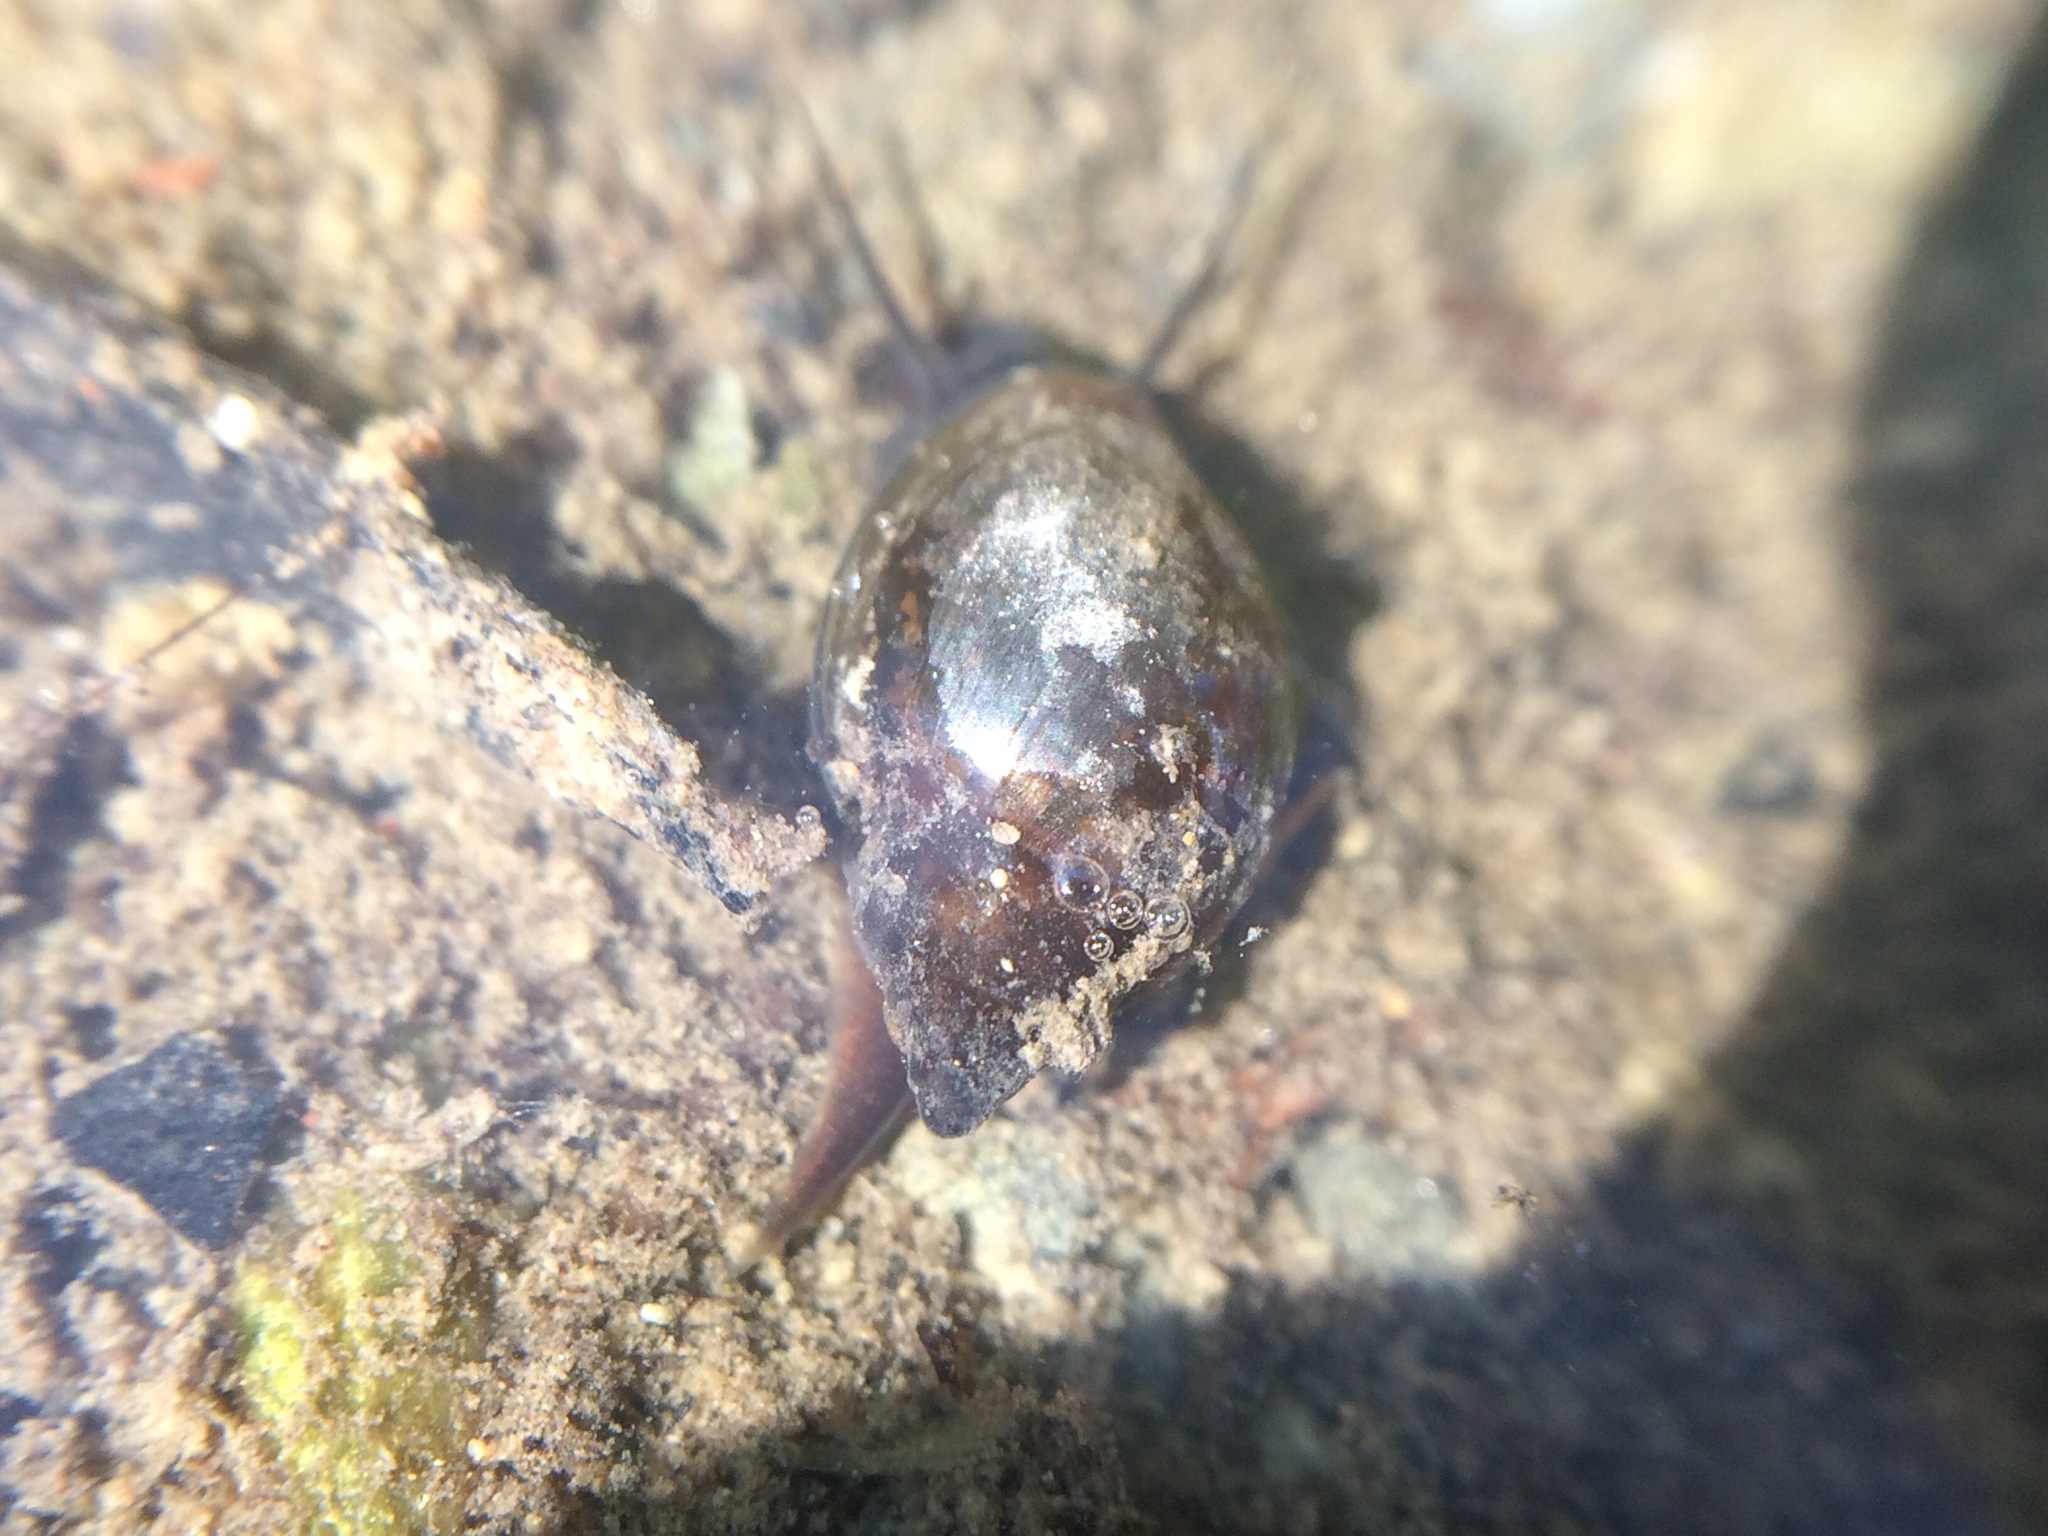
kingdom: Animalia
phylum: Mollusca
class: Gastropoda
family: Physidae
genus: Physella
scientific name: Physella acuta
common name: European physa
